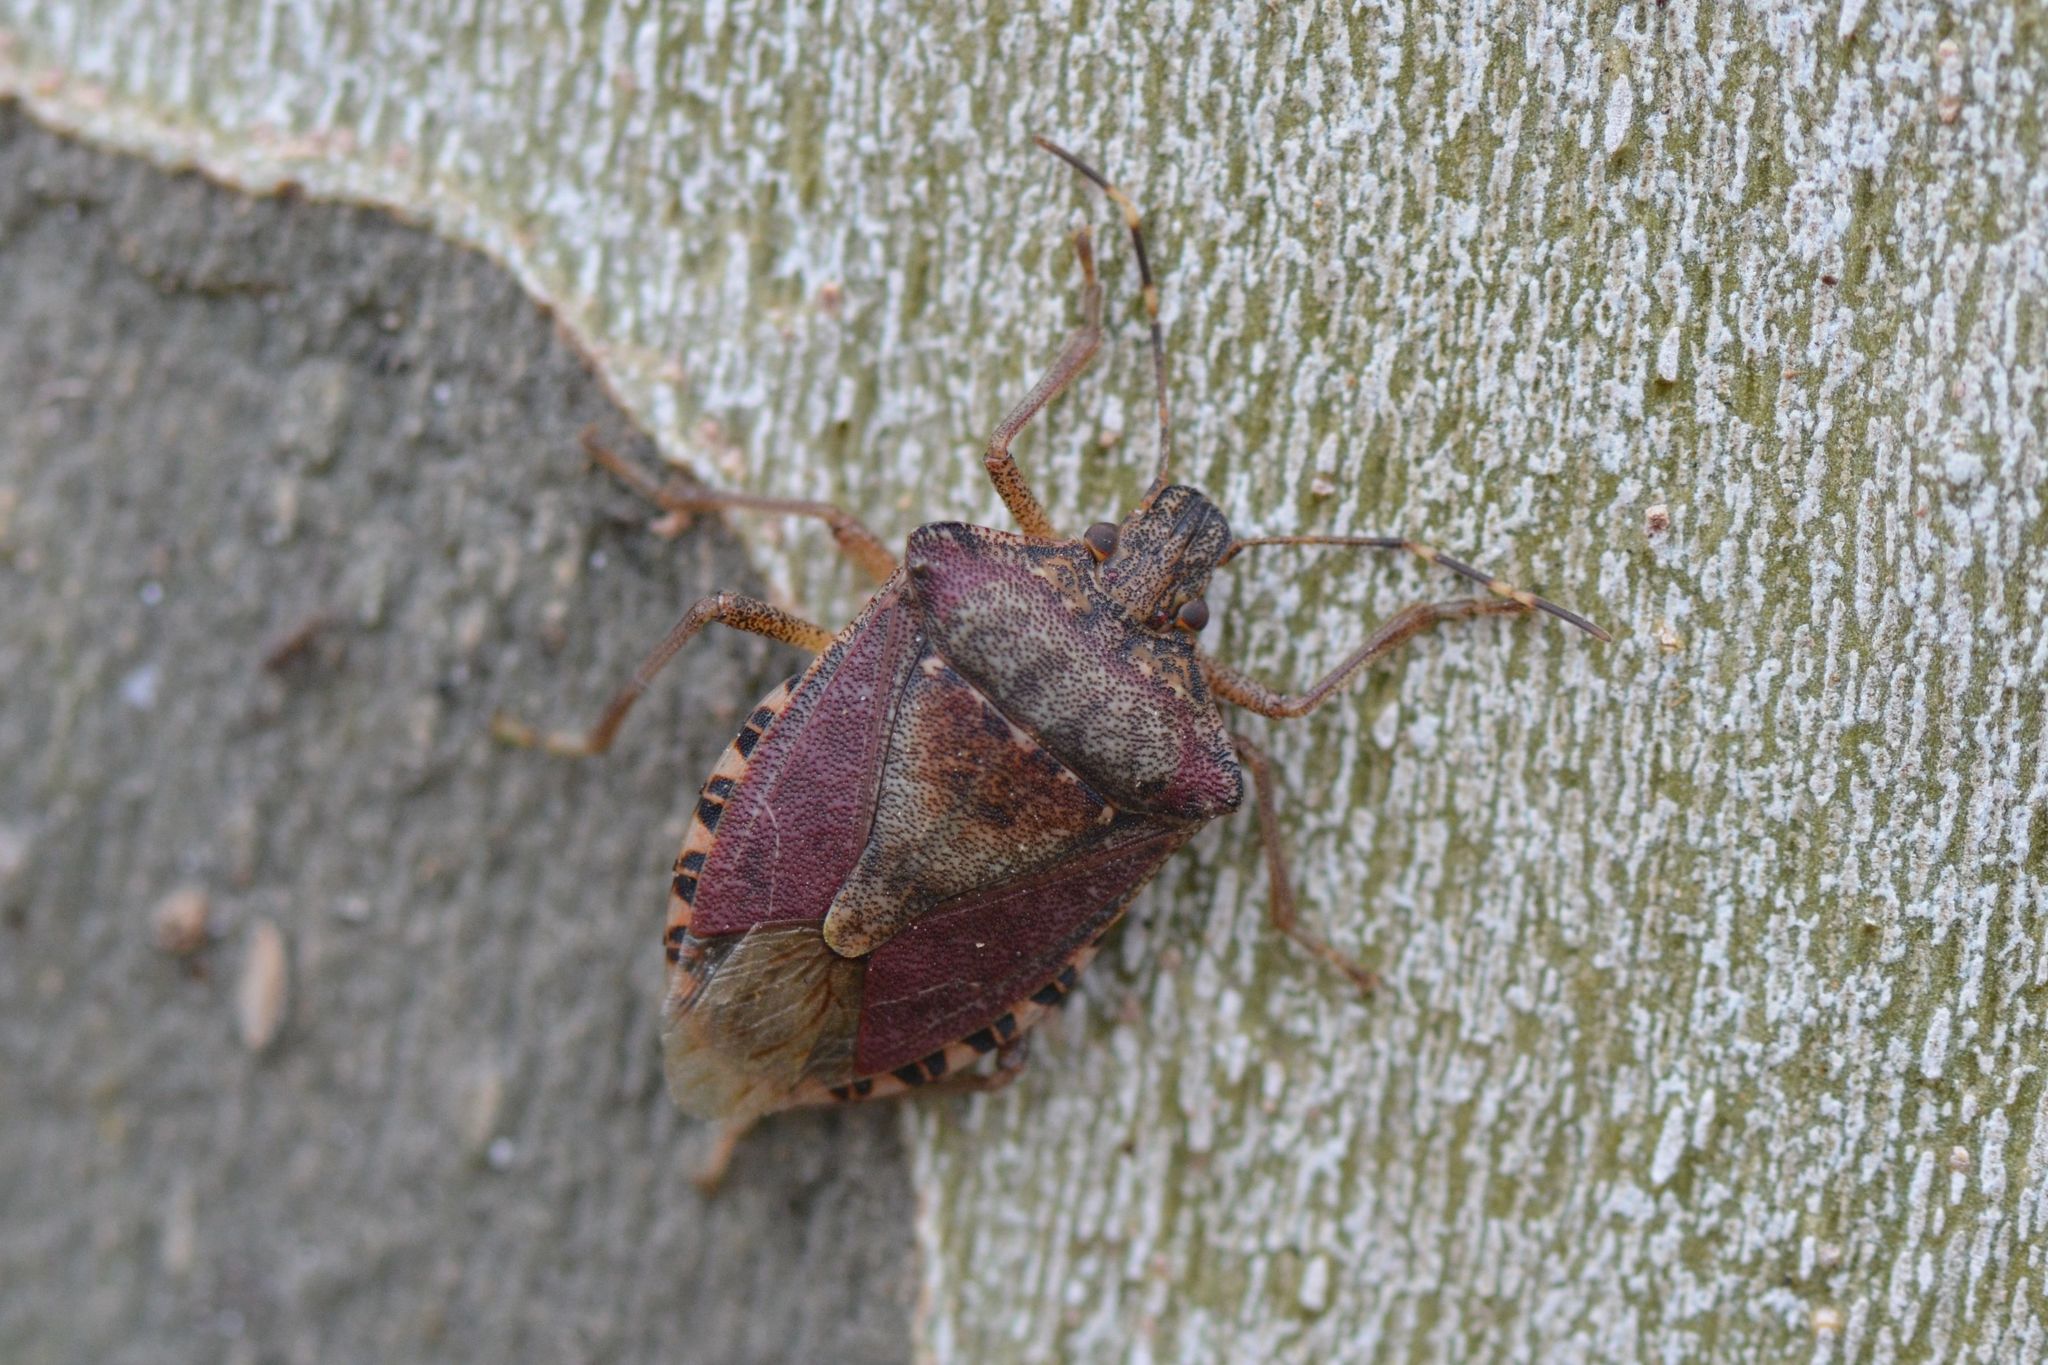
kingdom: Animalia
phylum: Arthropoda
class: Insecta
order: Hemiptera
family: Pentatomidae
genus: Halyomorpha
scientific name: Halyomorpha halys
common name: Brown marmorated stink bug
